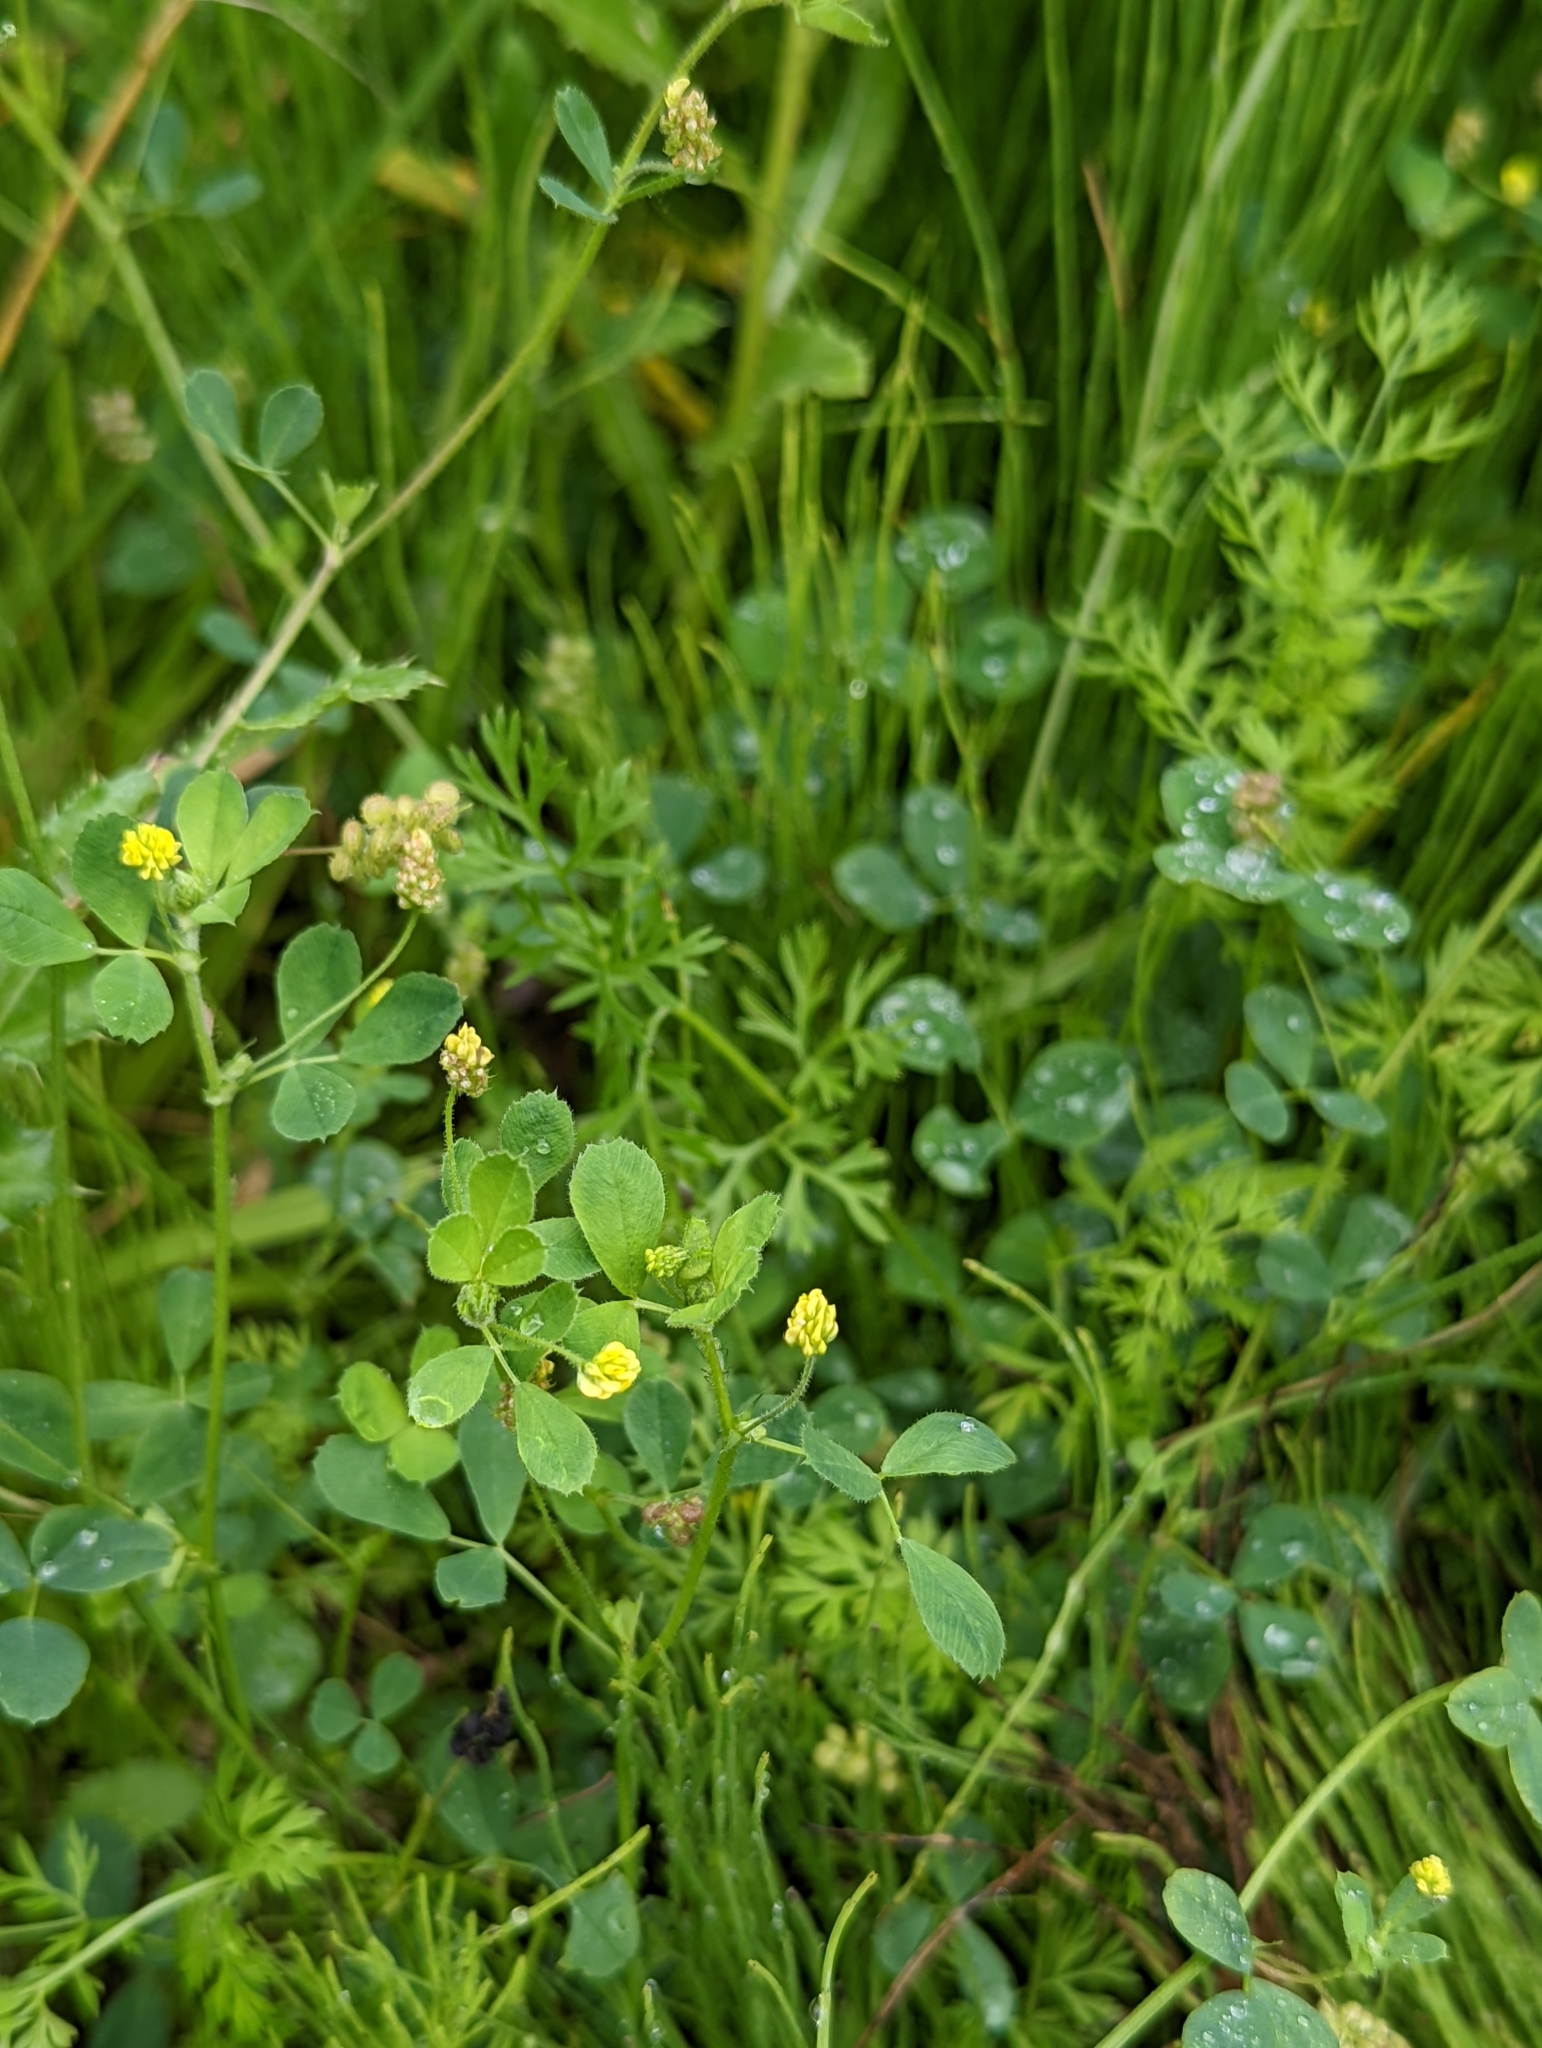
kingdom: Plantae
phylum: Tracheophyta
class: Magnoliopsida
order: Fabales
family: Fabaceae
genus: Medicago
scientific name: Medicago lupulina
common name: Black medick
